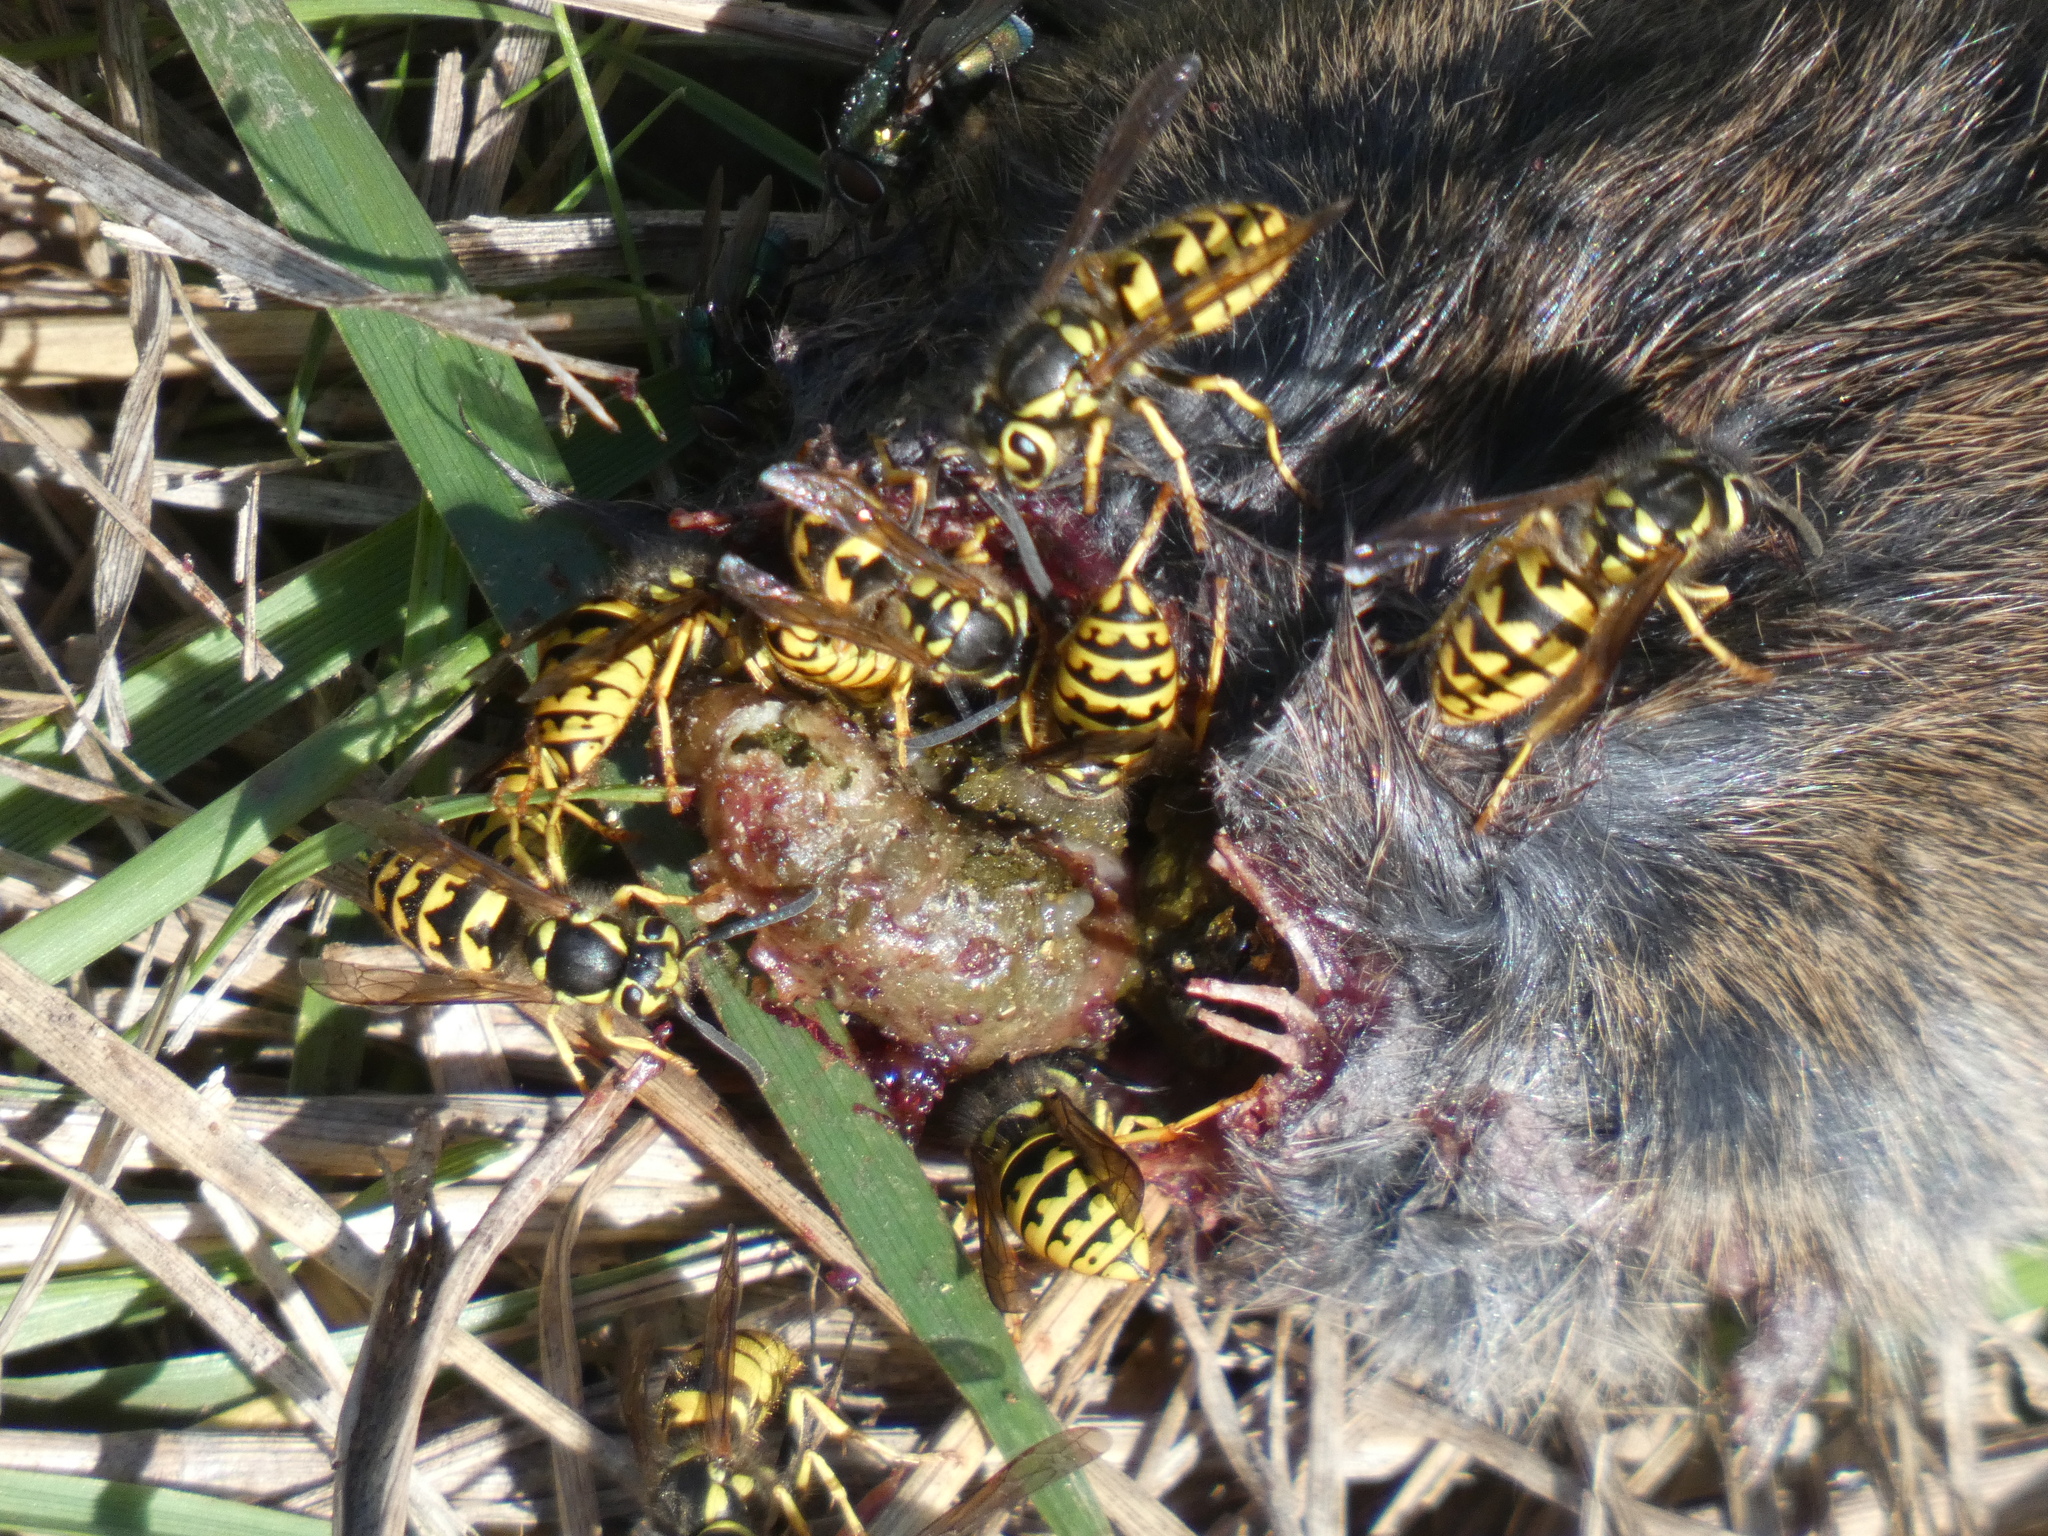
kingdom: Animalia
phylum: Arthropoda
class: Insecta
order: Hymenoptera
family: Vespidae
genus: Vespula
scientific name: Vespula pensylvanica
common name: Western yellowjacket
